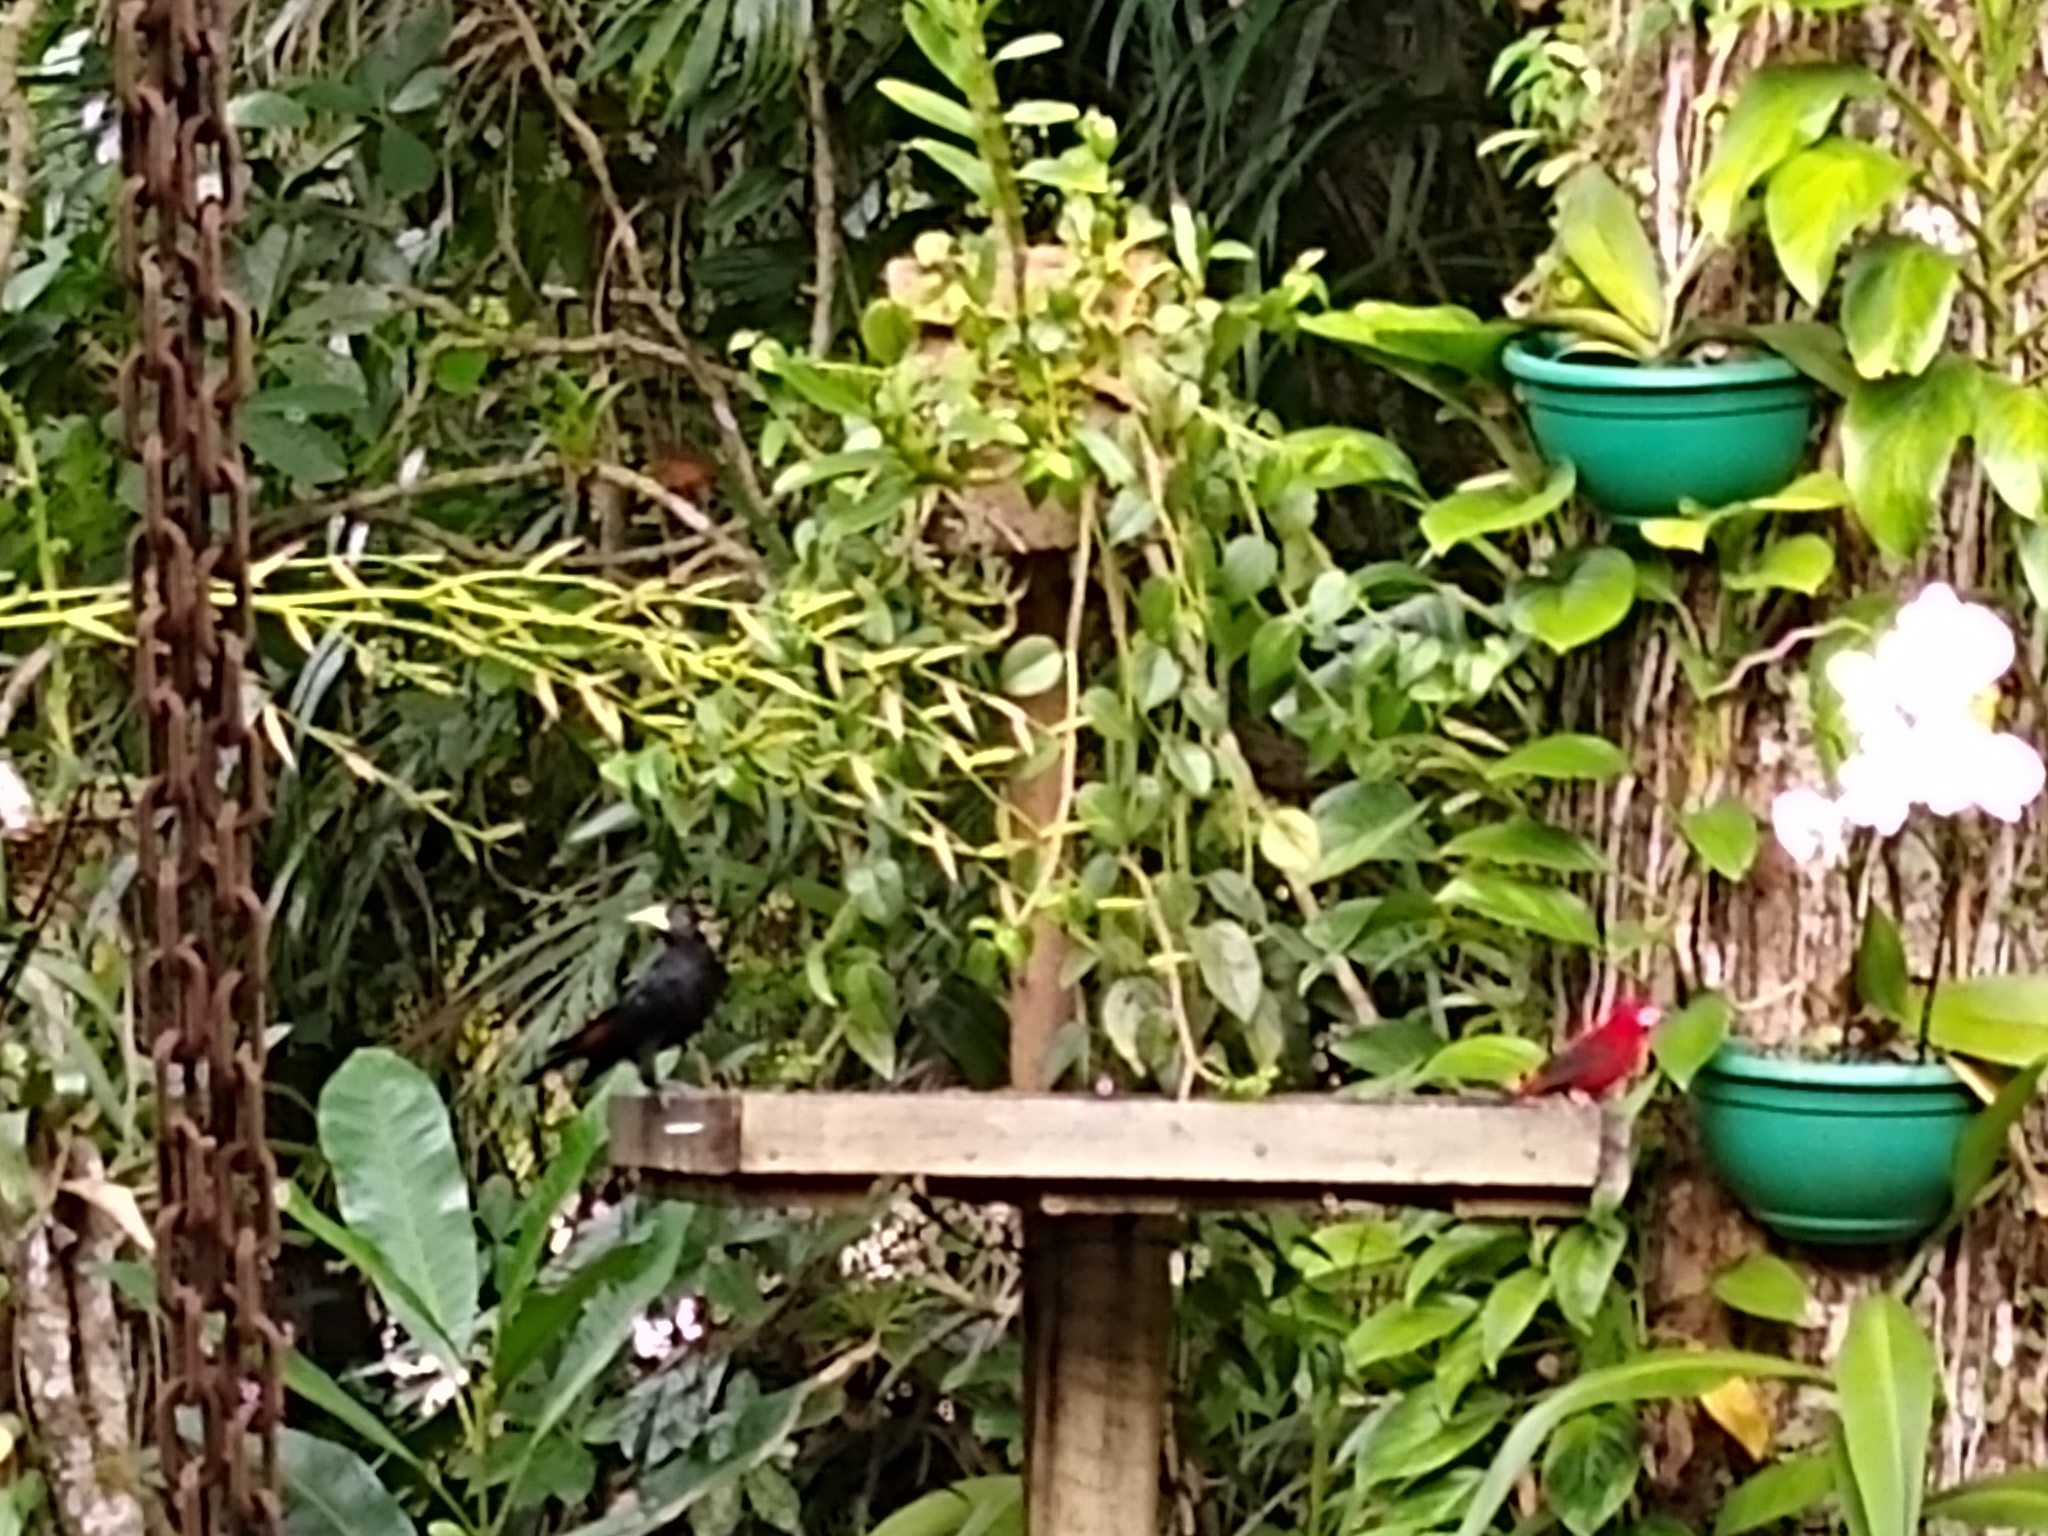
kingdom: Animalia
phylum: Chordata
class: Aves
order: Passeriformes
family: Icteridae
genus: Cacicus
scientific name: Cacicus haemorrhous
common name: Red-rumped cacique
